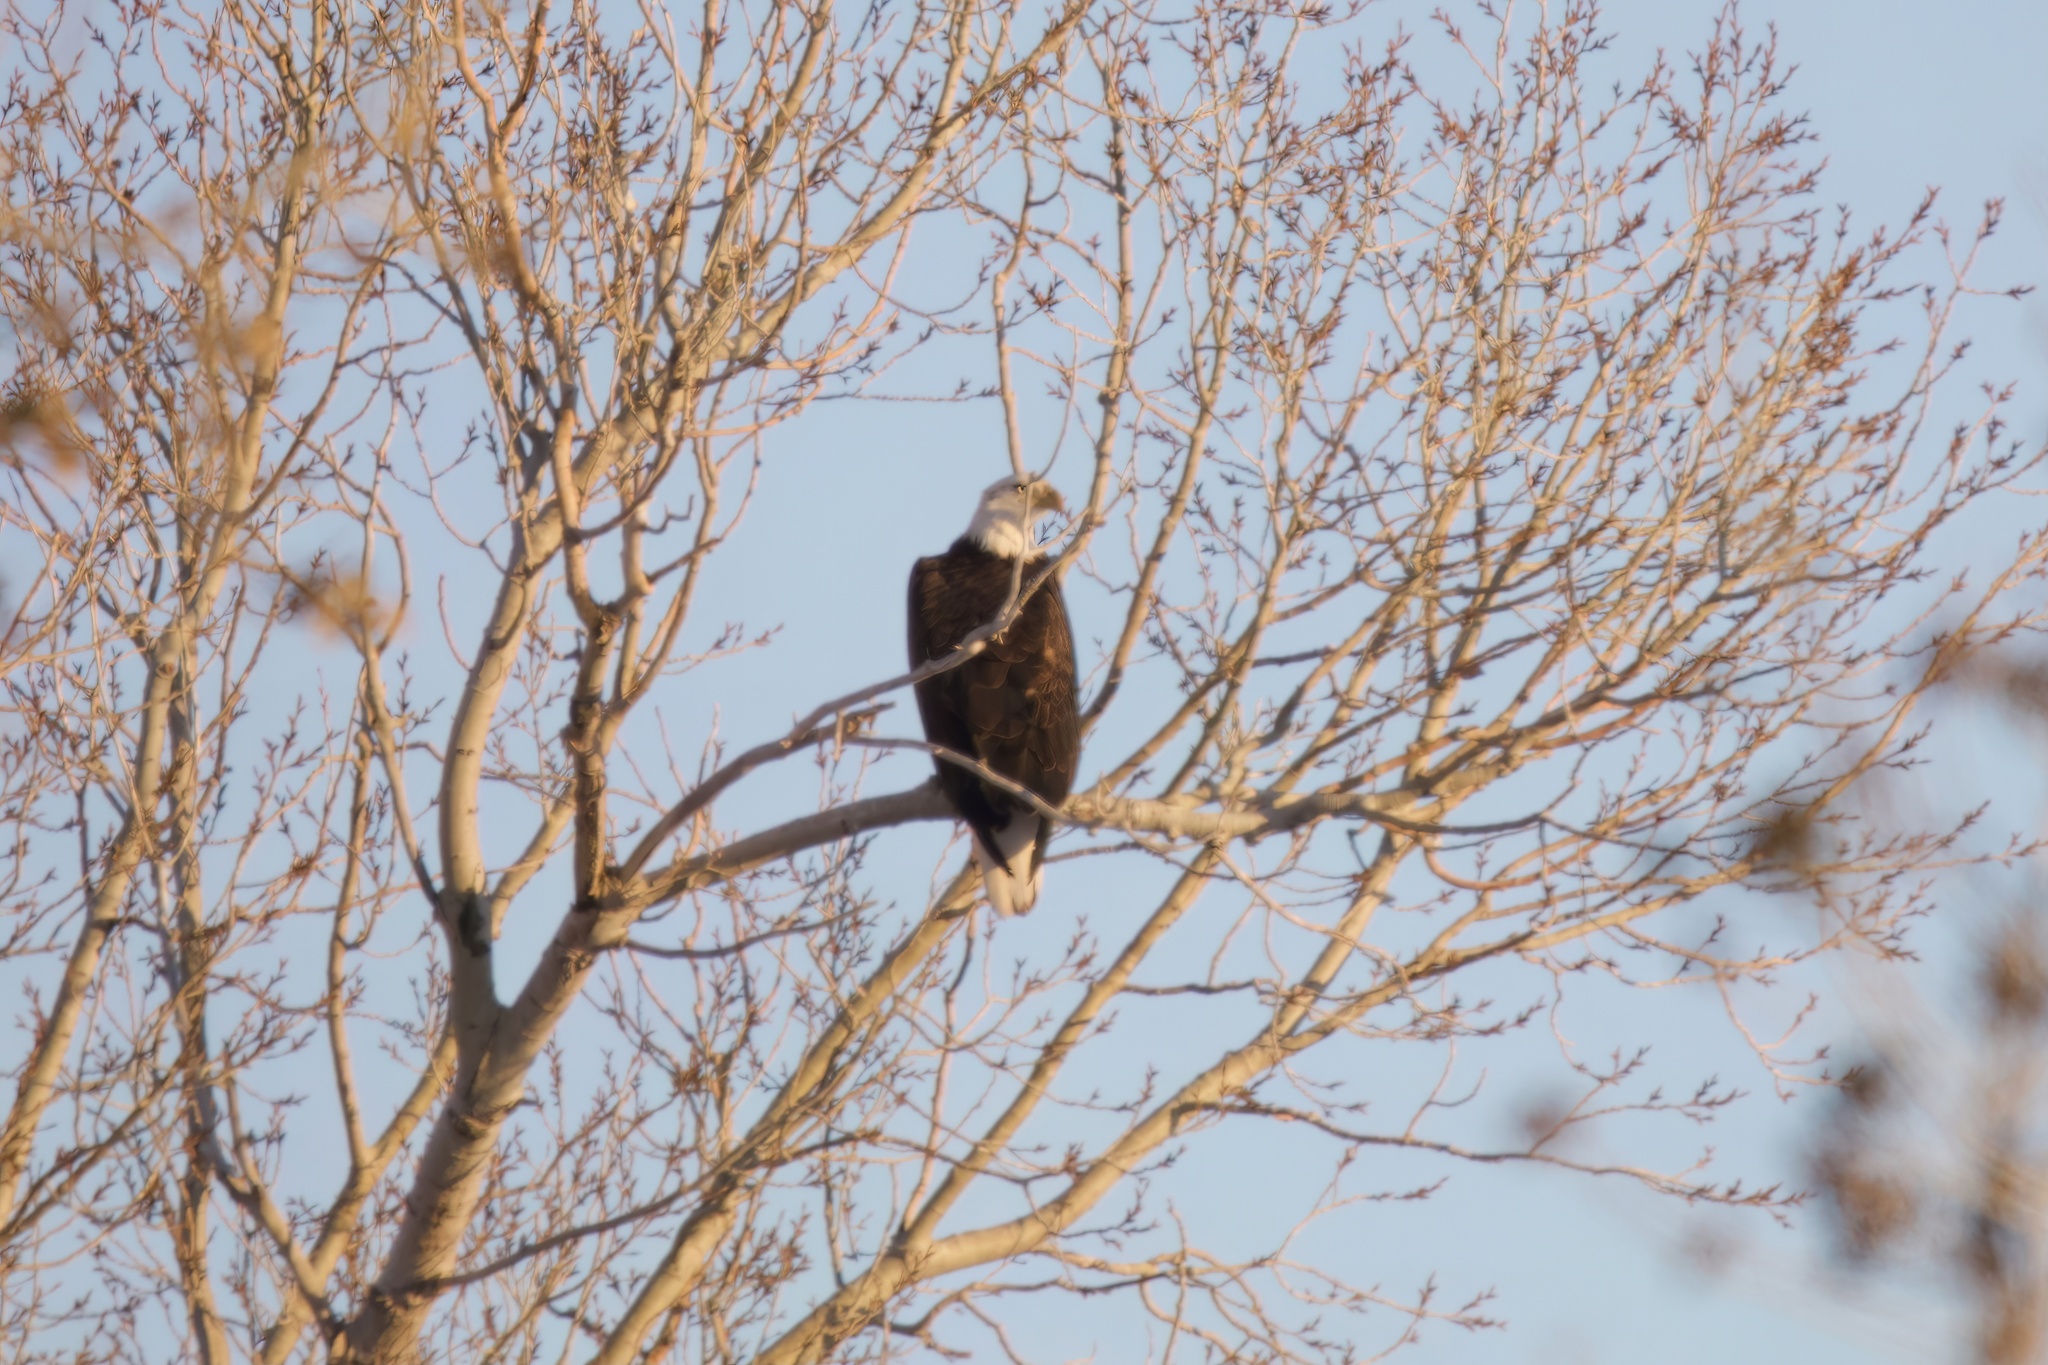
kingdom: Animalia
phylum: Chordata
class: Aves
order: Accipitriformes
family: Accipitridae
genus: Haliaeetus
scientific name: Haliaeetus leucocephalus
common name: Bald eagle
